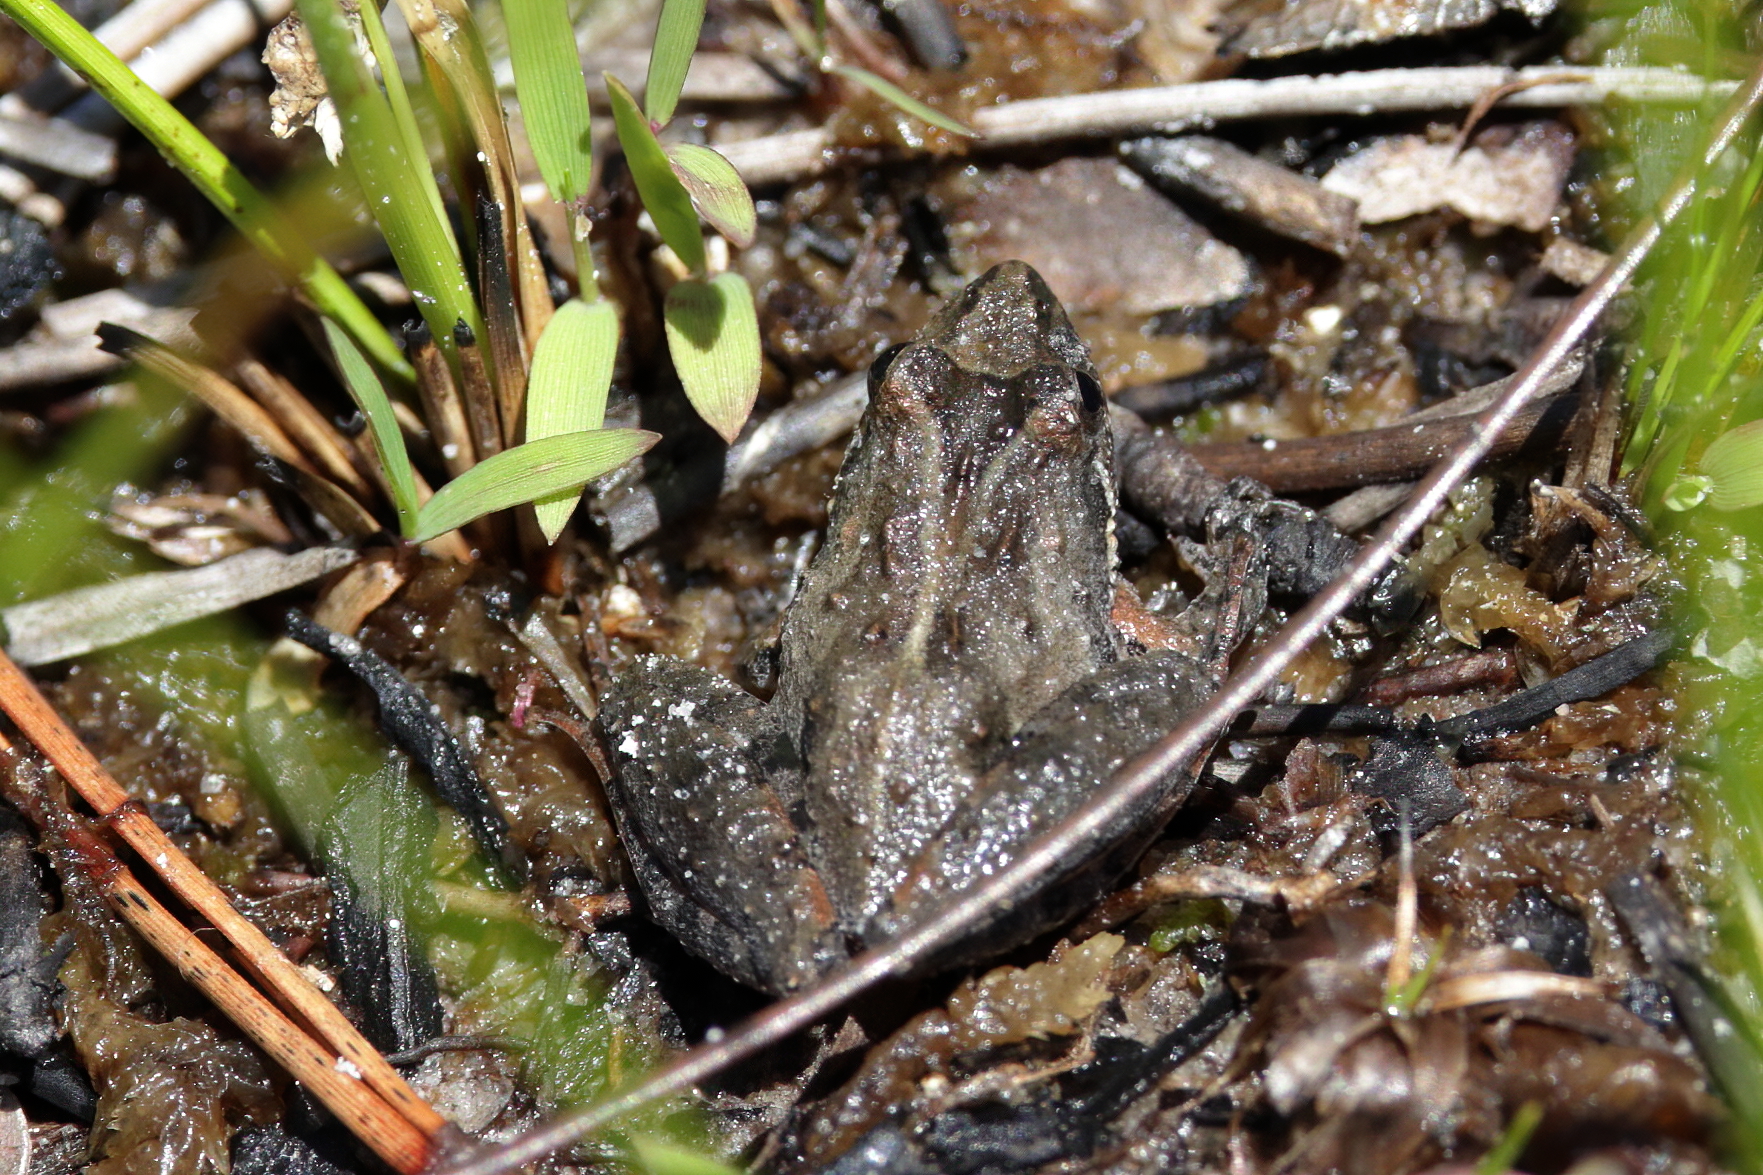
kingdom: Animalia
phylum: Chordata
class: Amphibia
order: Anura
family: Hylidae
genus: Acris
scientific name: Acris gryllus
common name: Southern cricket frog
